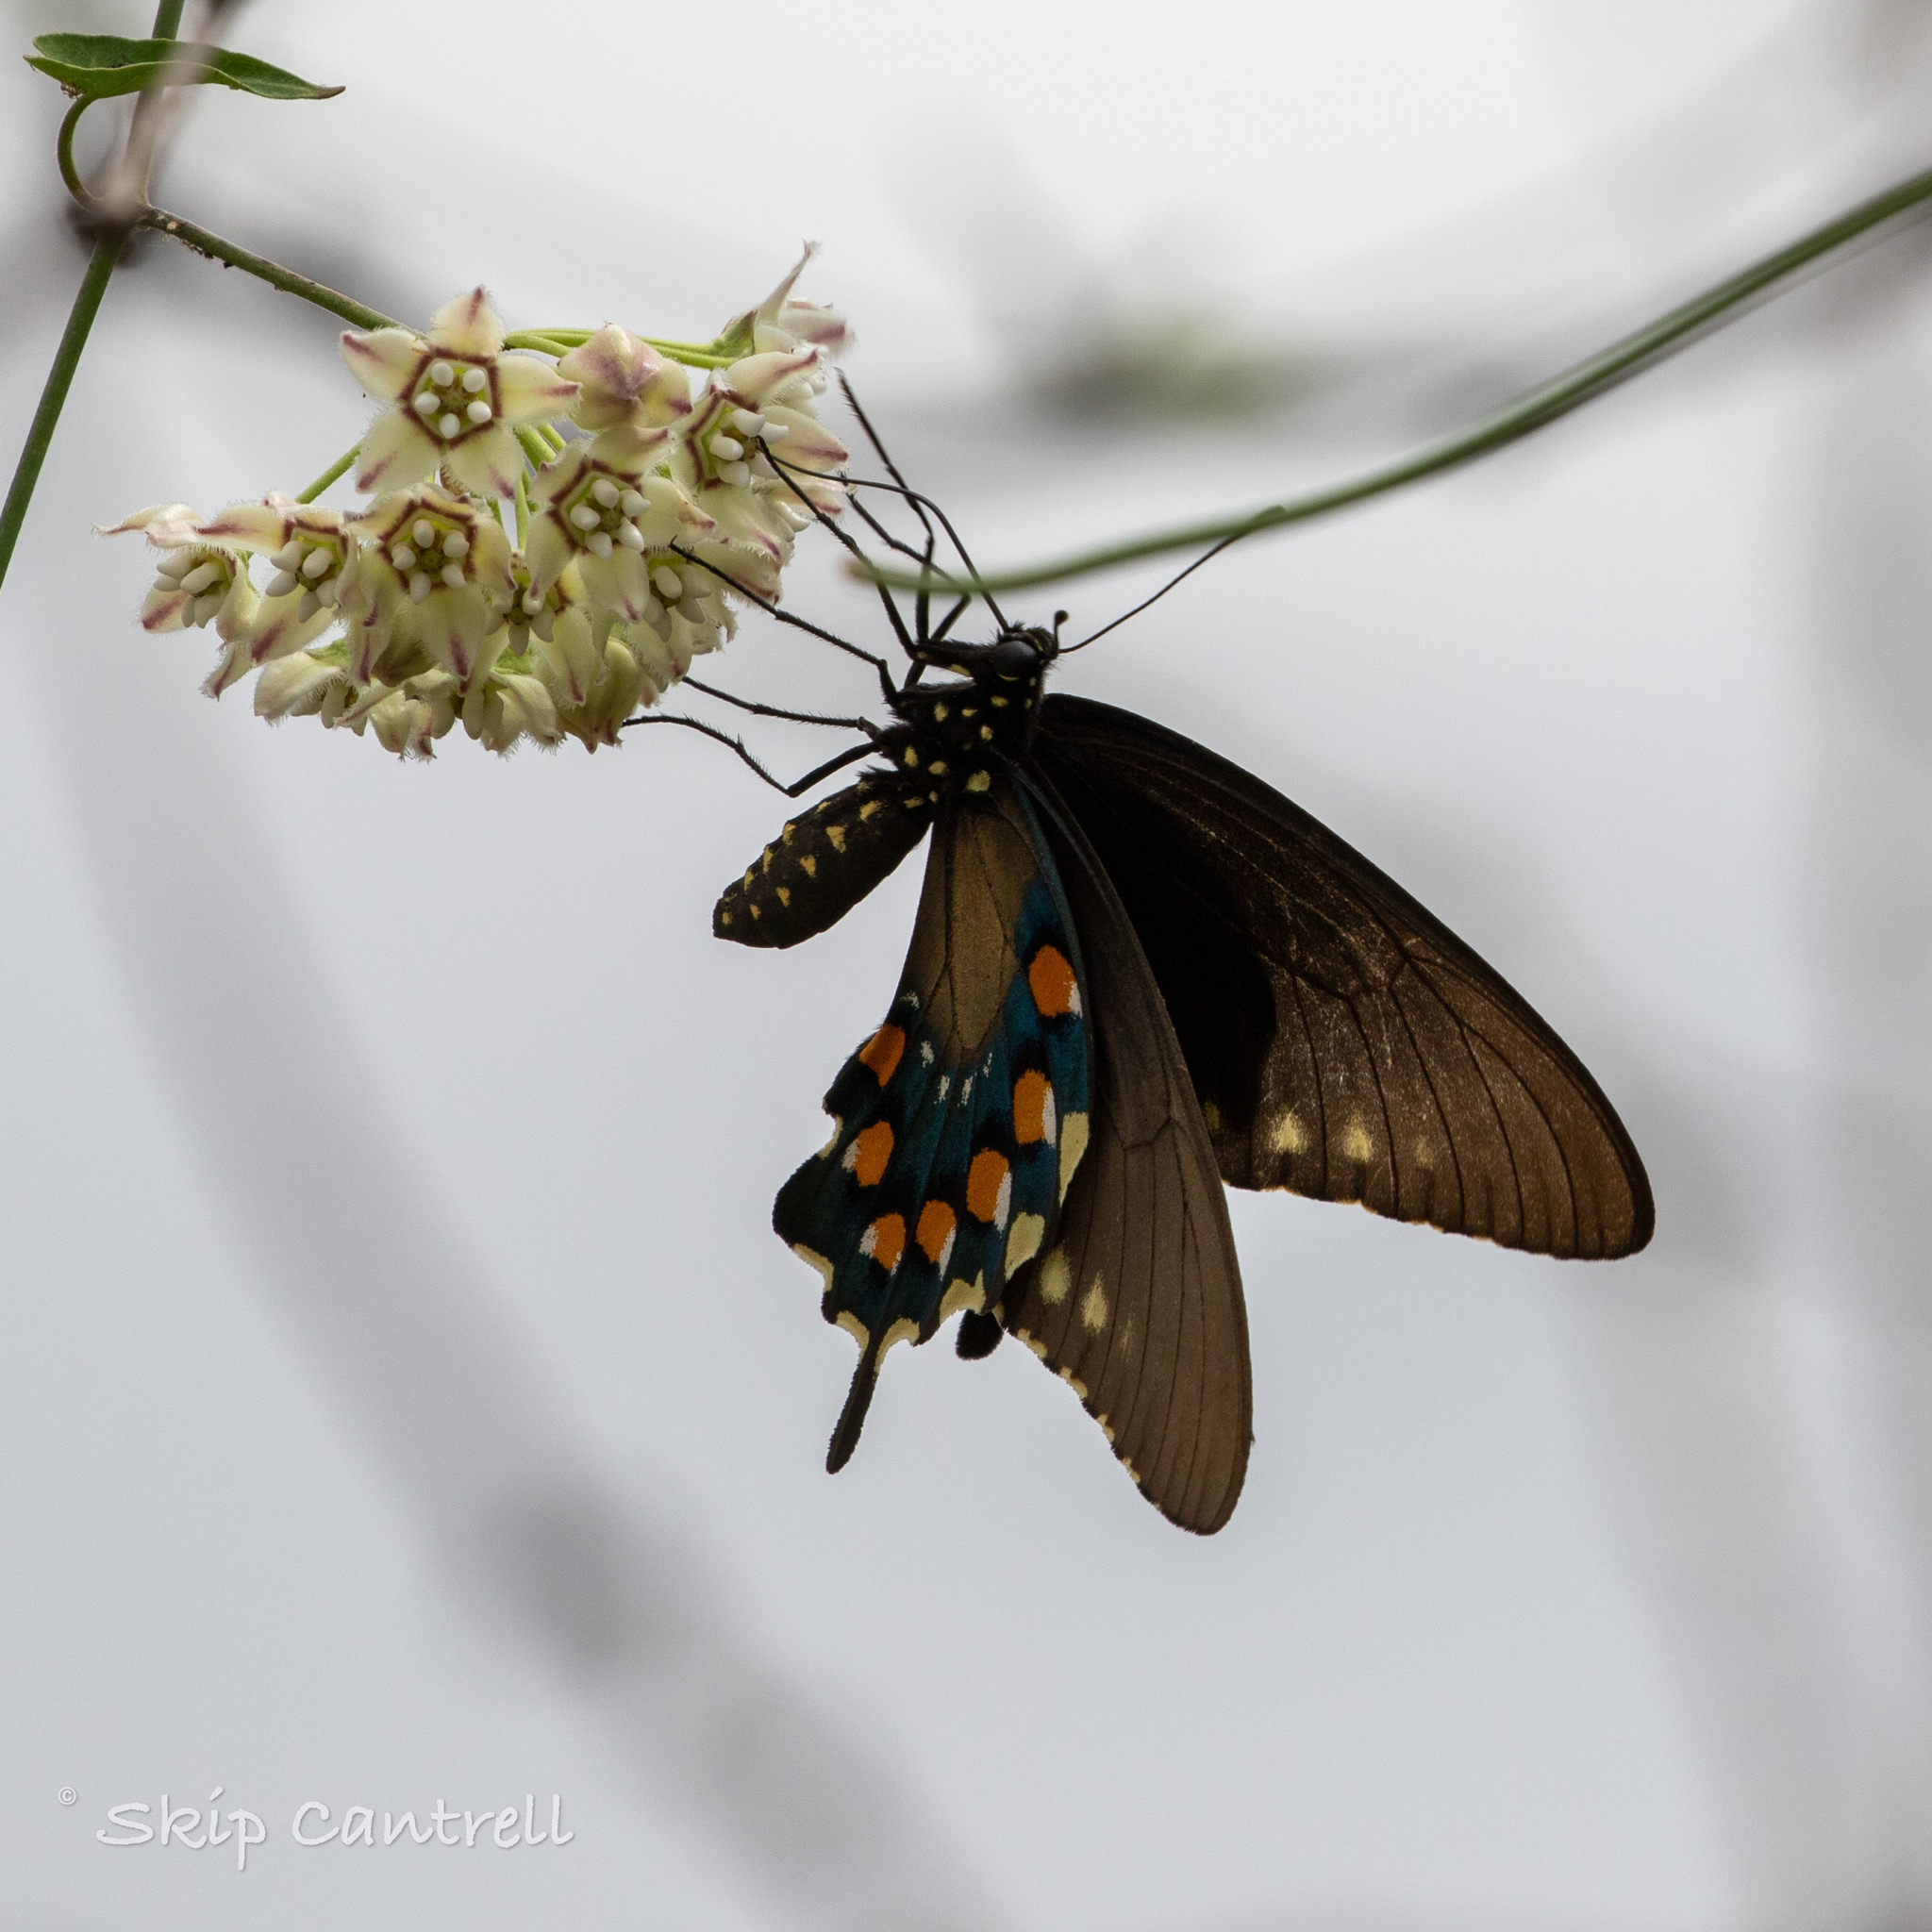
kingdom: Animalia
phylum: Arthropoda
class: Insecta
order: Lepidoptera
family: Papilionidae
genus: Battus
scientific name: Battus philenor
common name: Pipevine swallowtail
